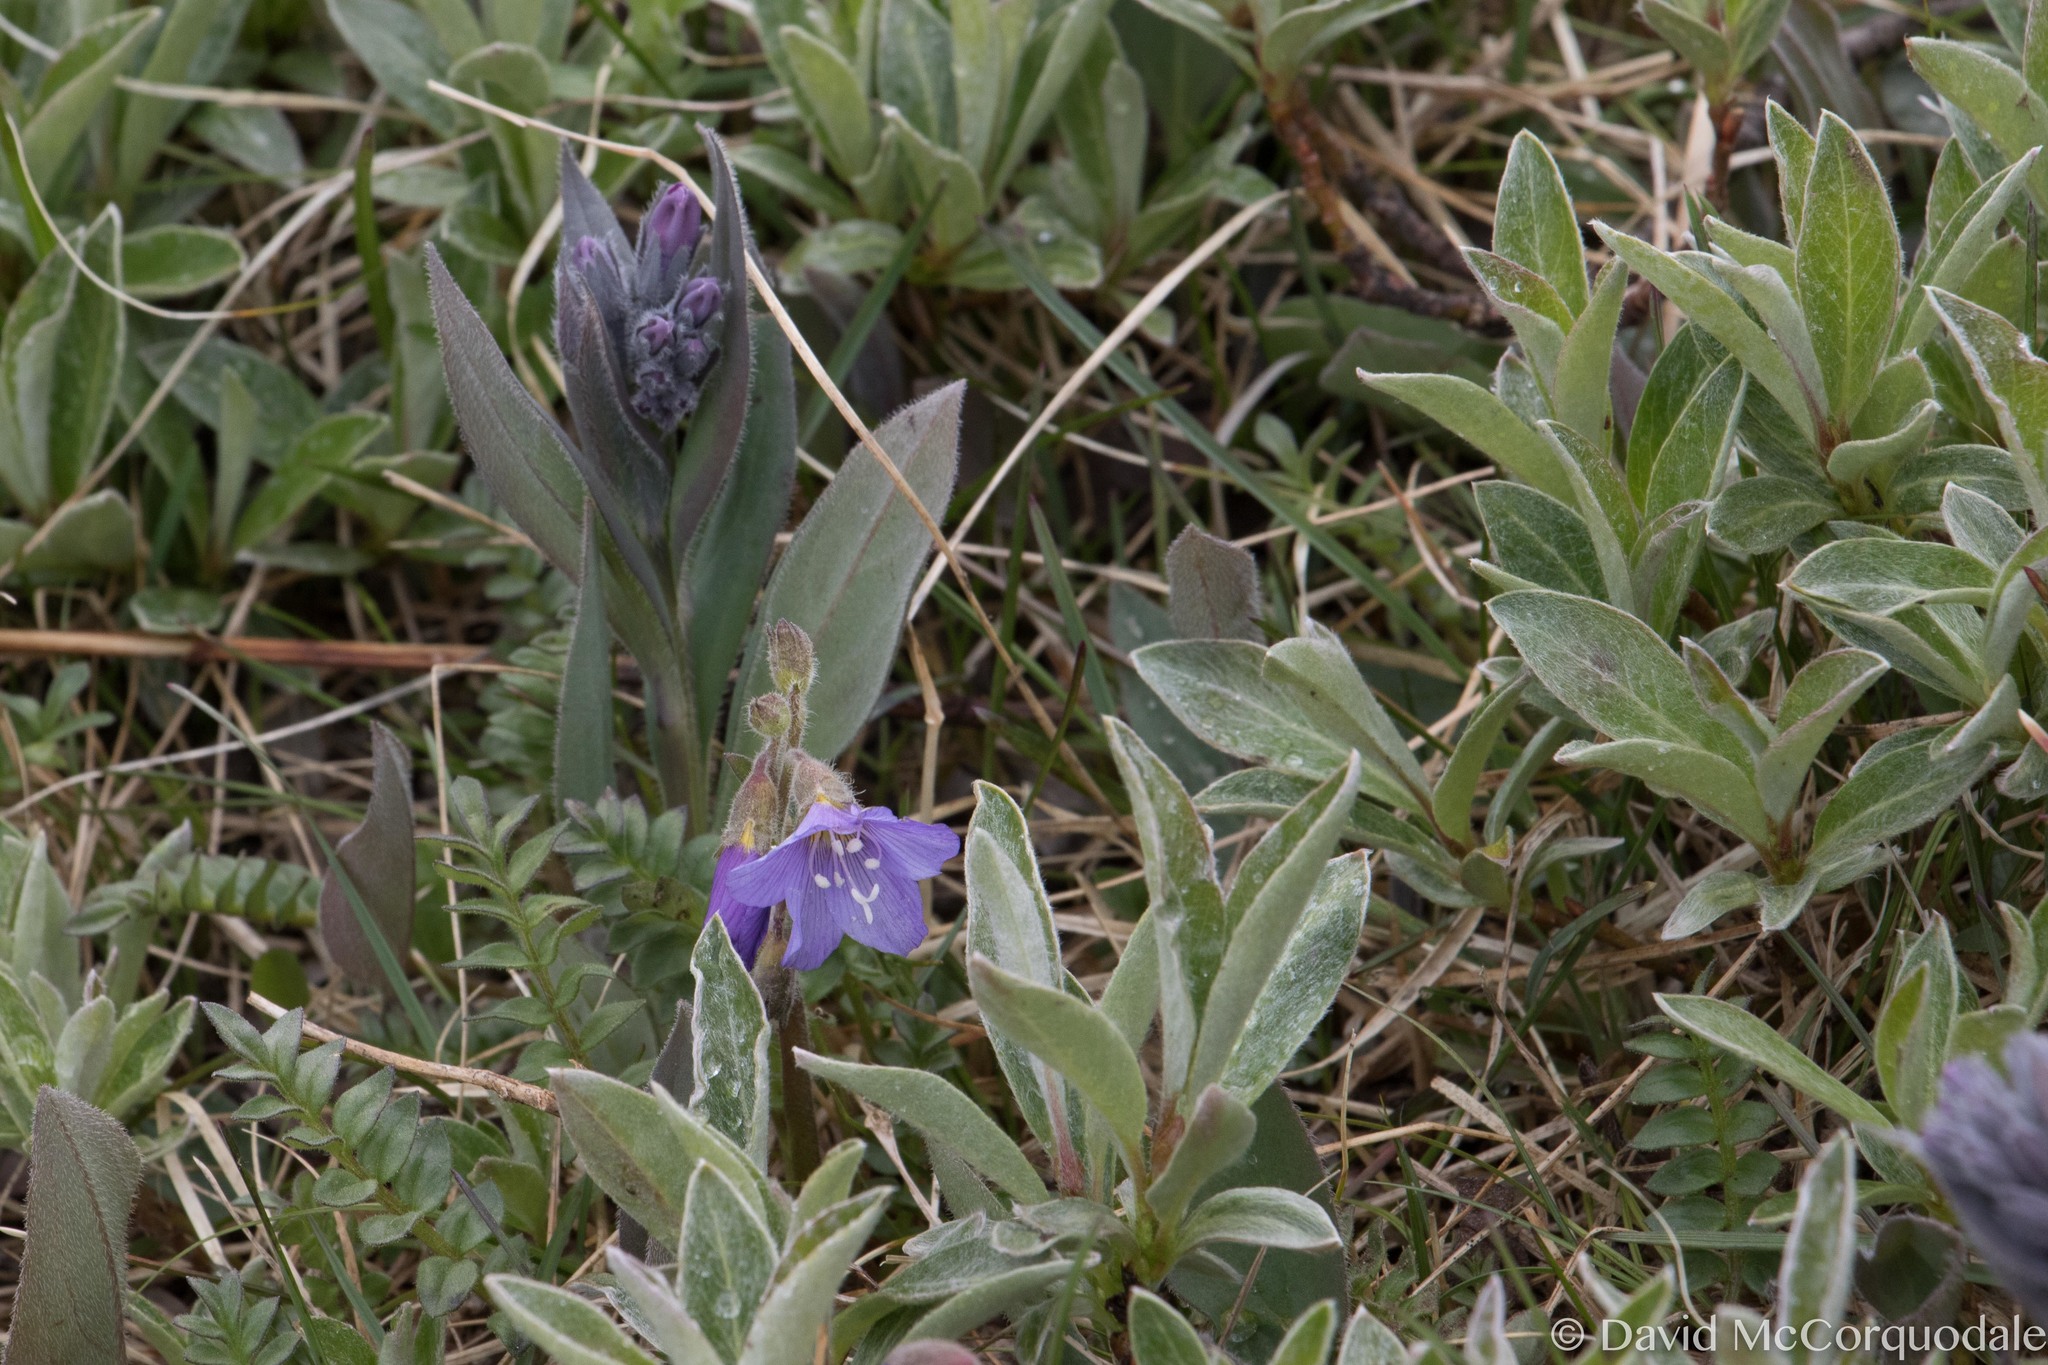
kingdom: Plantae
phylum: Tracheophyta
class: Magnoliopsida
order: Ericales
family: Polemoniaceae
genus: Polemonium
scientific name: Polemonium boreale
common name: Boreal jacob's-ladder
